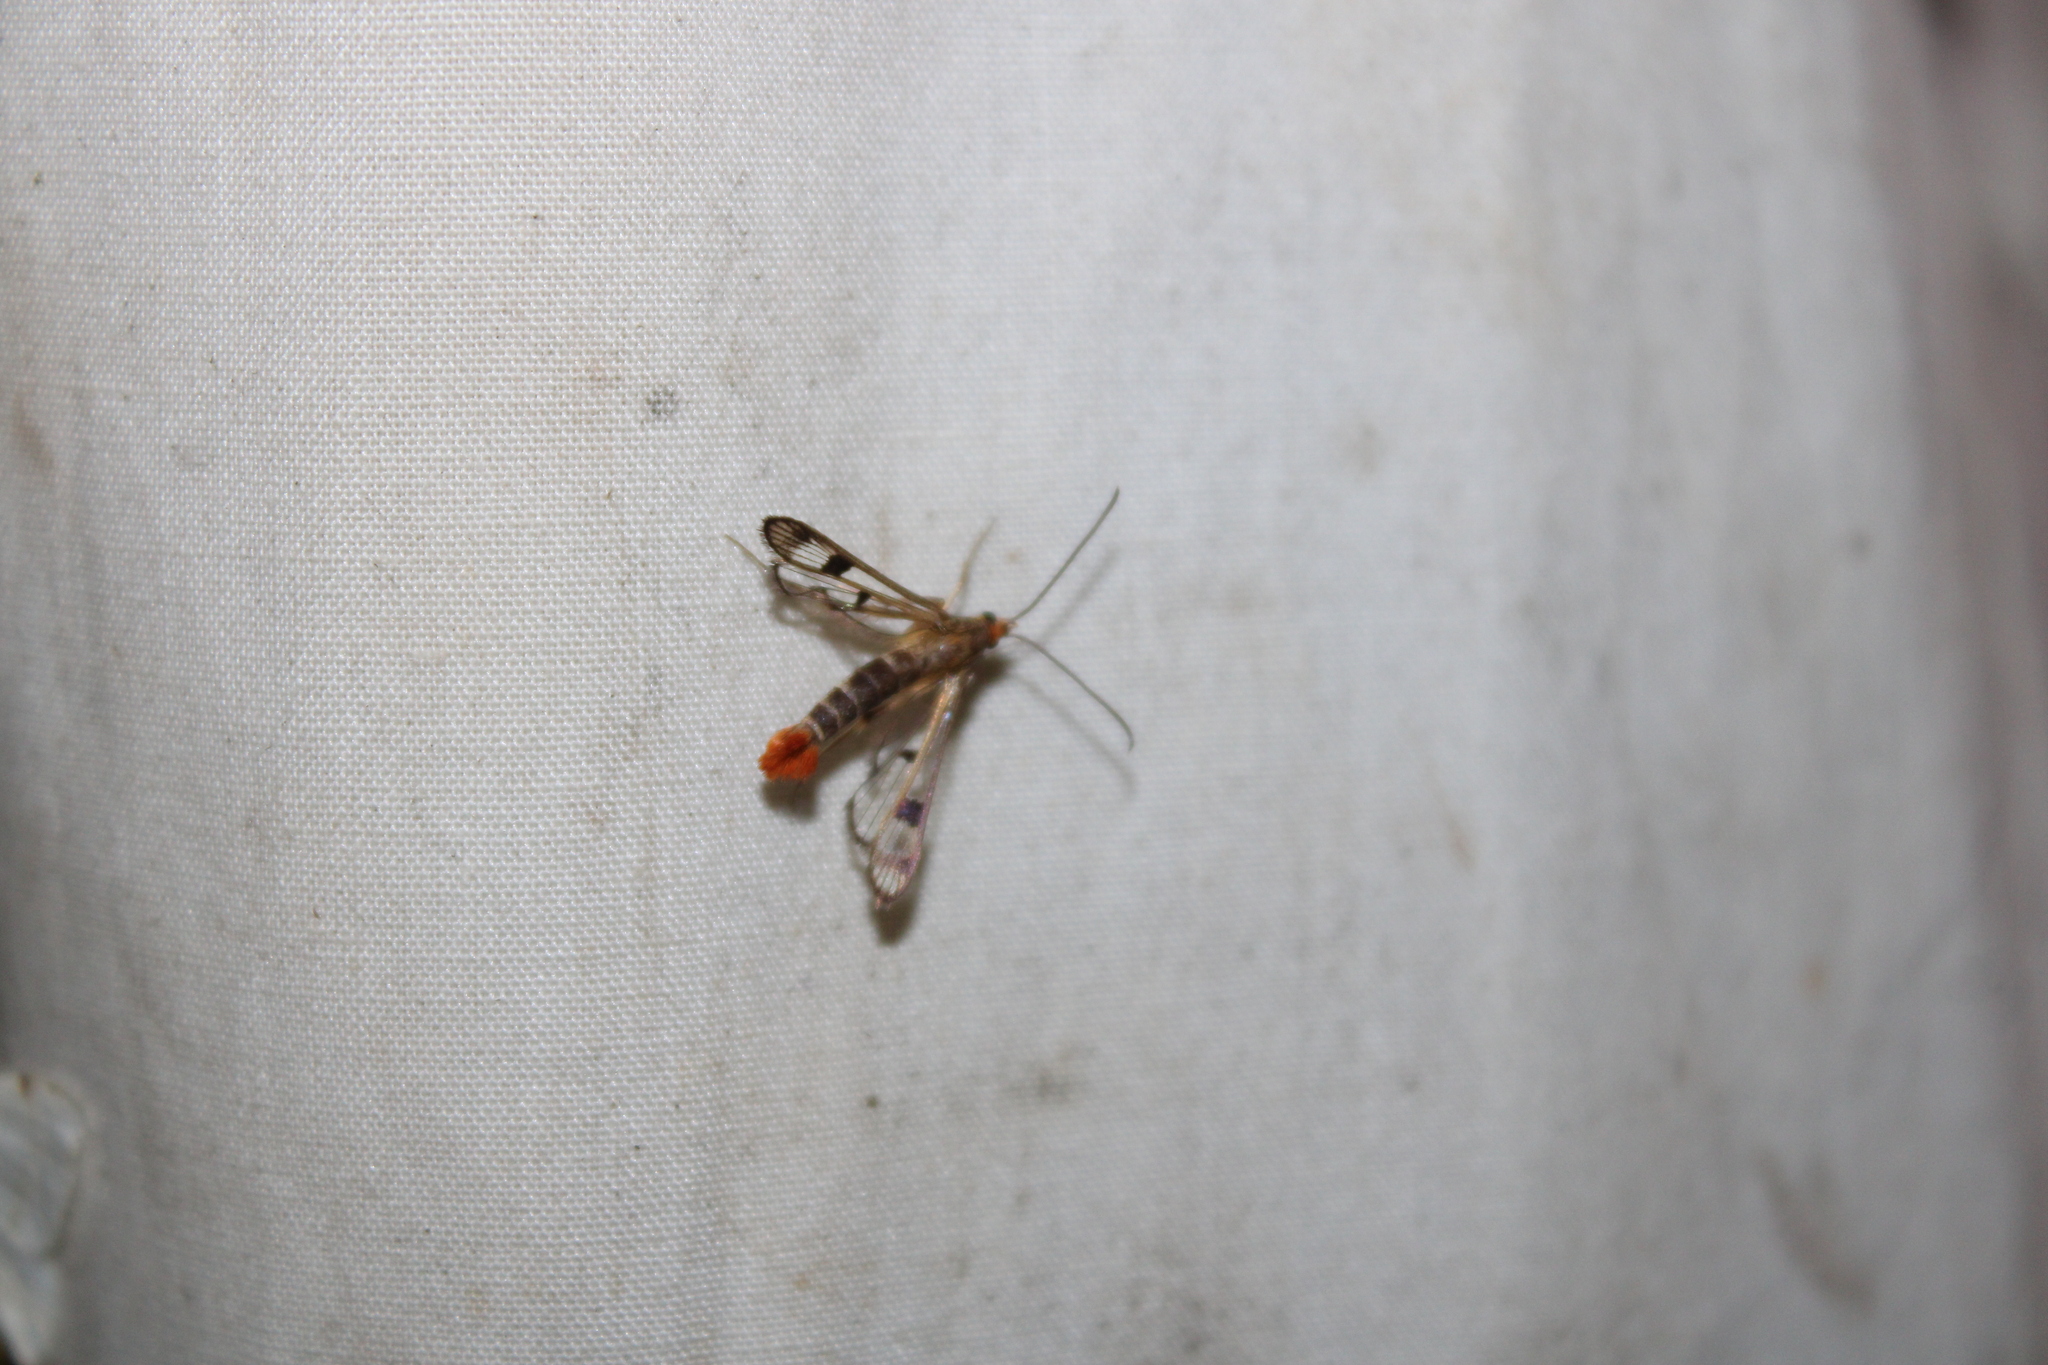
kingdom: Animalia
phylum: Arthropoda
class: Insecta
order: Lepidoptera
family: Sesiidae
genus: Synanthedon
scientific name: Synanthedon acerni
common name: Maple callus borer moth
